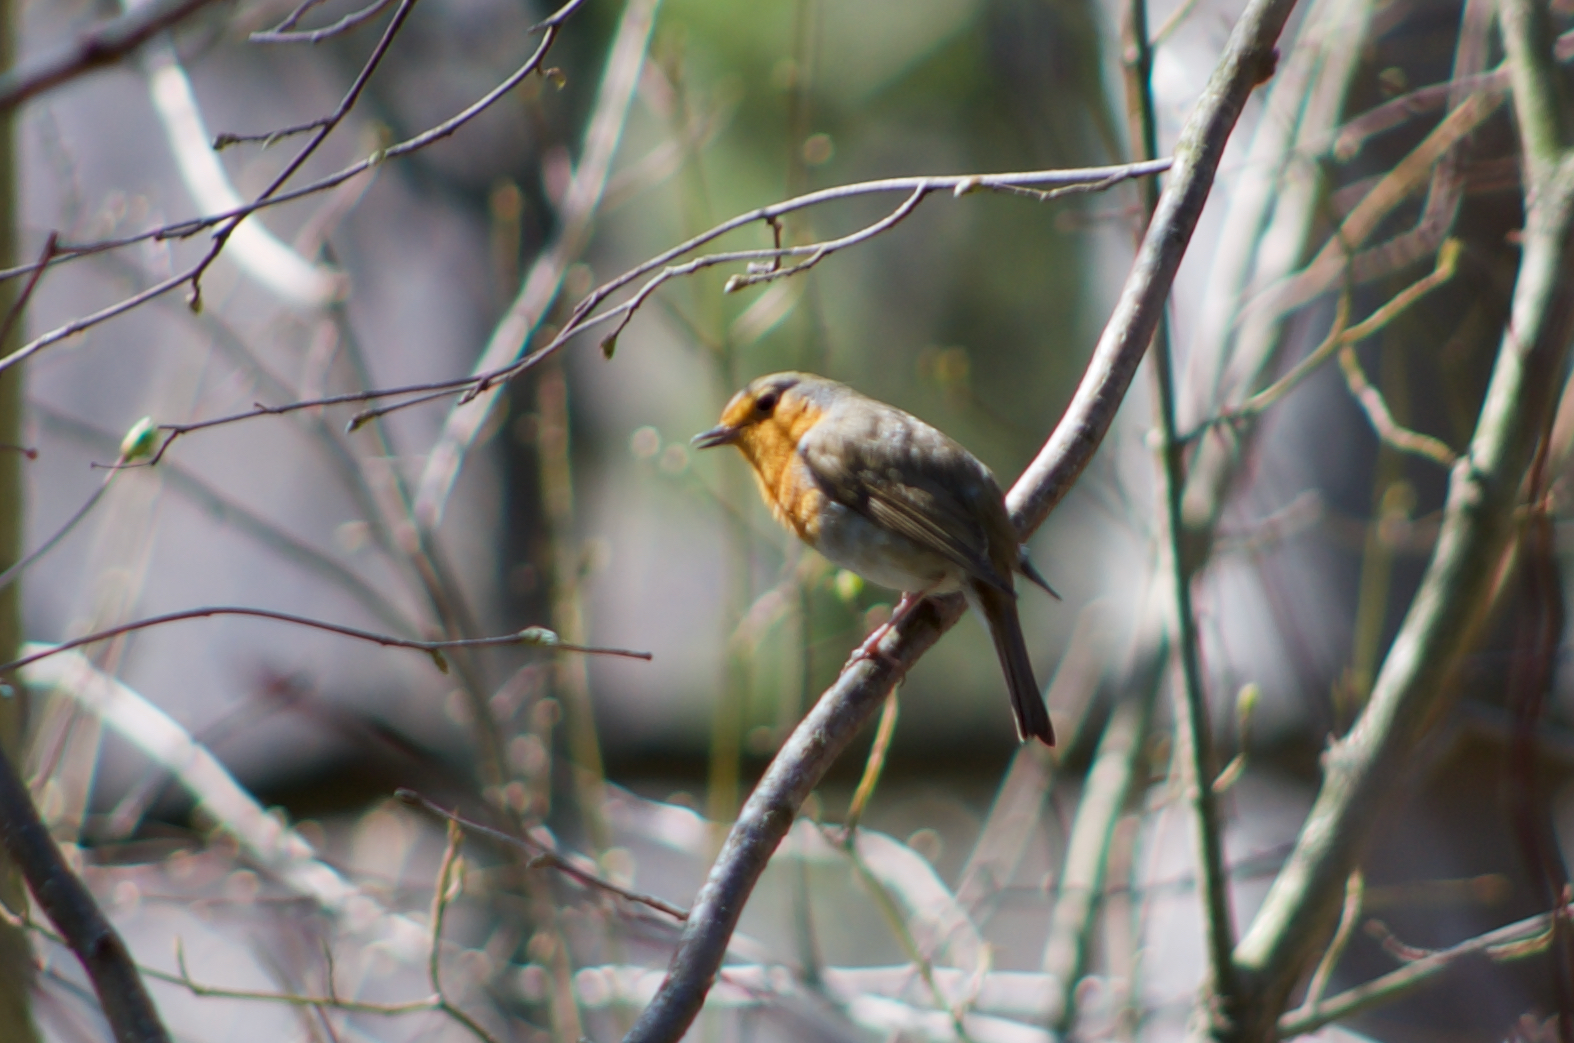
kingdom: Animalia
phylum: Chordata
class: Aves
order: Passeriformes
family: Muscicapidae
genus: Erithacus
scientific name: Erithacus rubecula
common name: European robin
